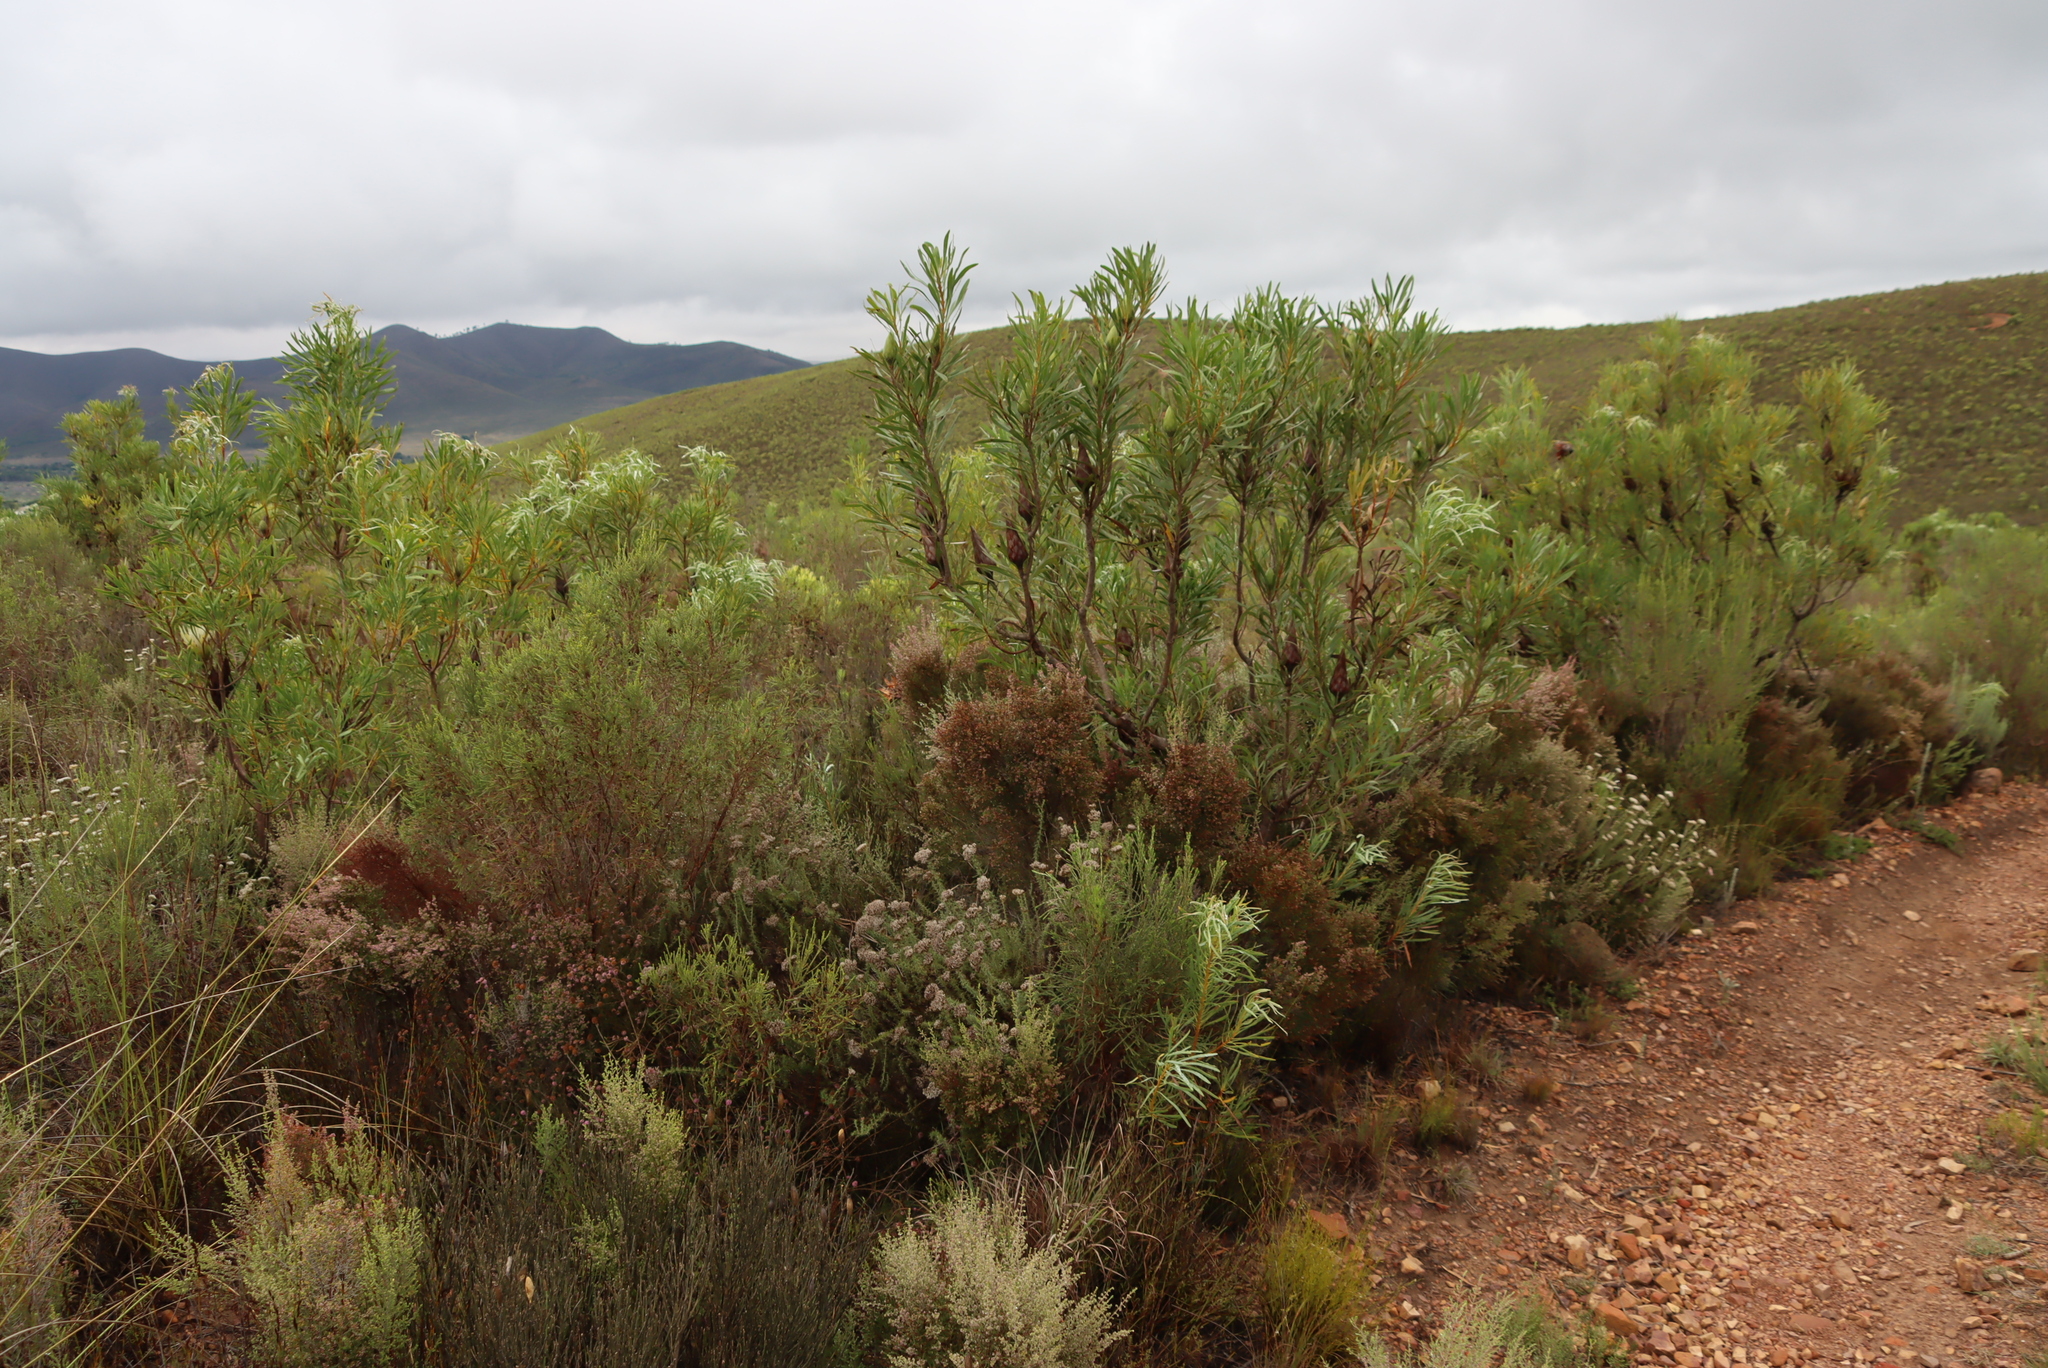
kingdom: Plantae
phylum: Tracheophyta
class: Magnoliopsida
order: Proteales
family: Proteaceae
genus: Protea
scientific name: Protea repens
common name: Sugarbush
